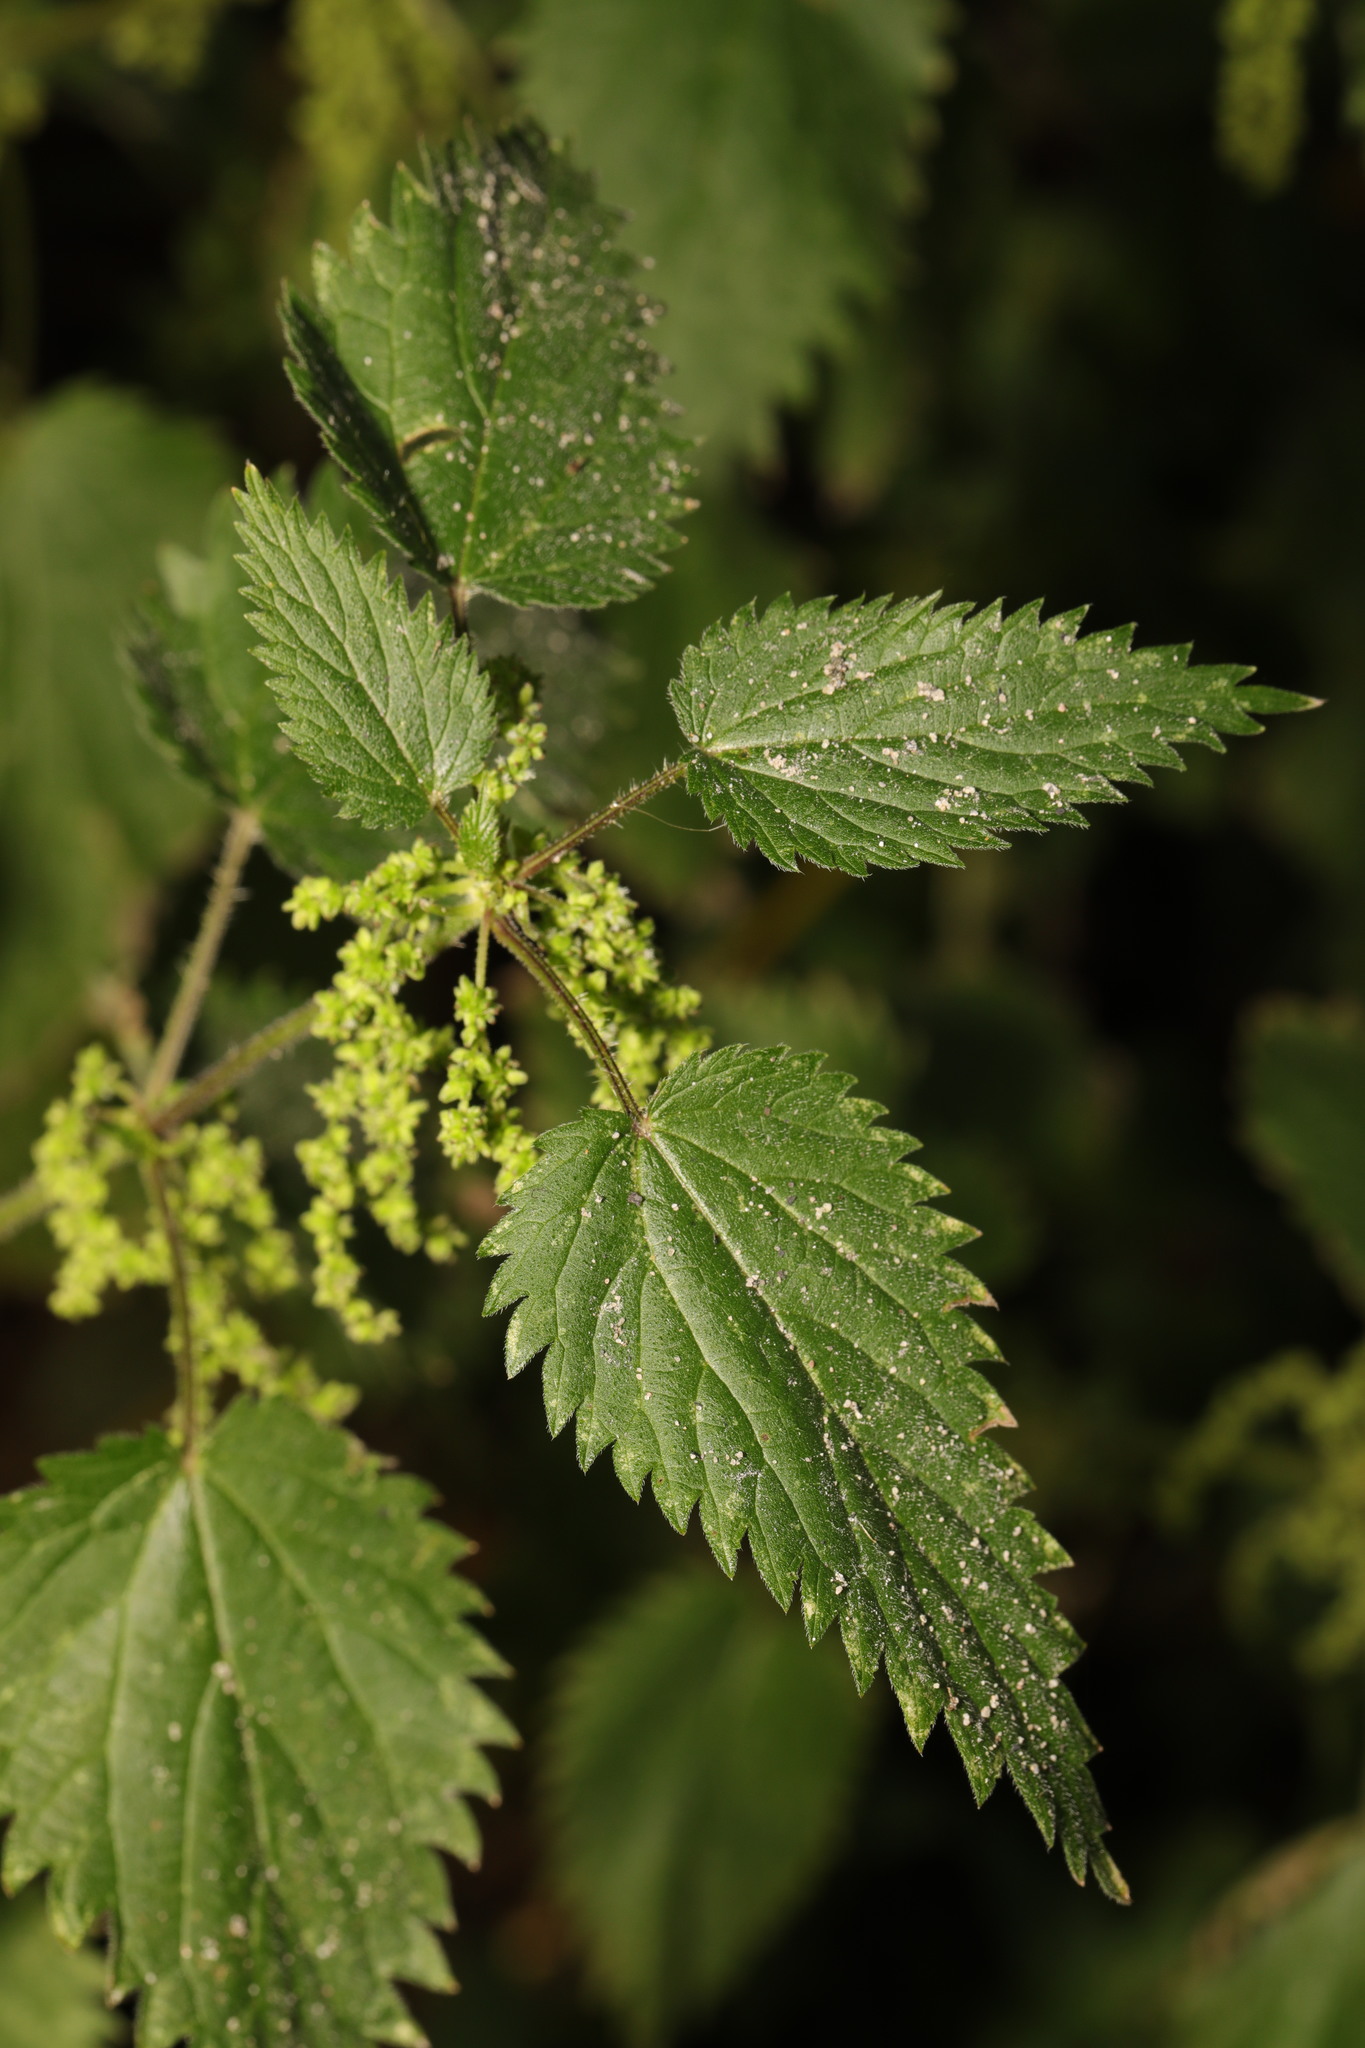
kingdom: Plantae
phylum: Tracheophyta
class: Magnoliopsida
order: Rosales
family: Urticaceae
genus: Urtica
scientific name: Urtica dioica
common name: Common nettle
